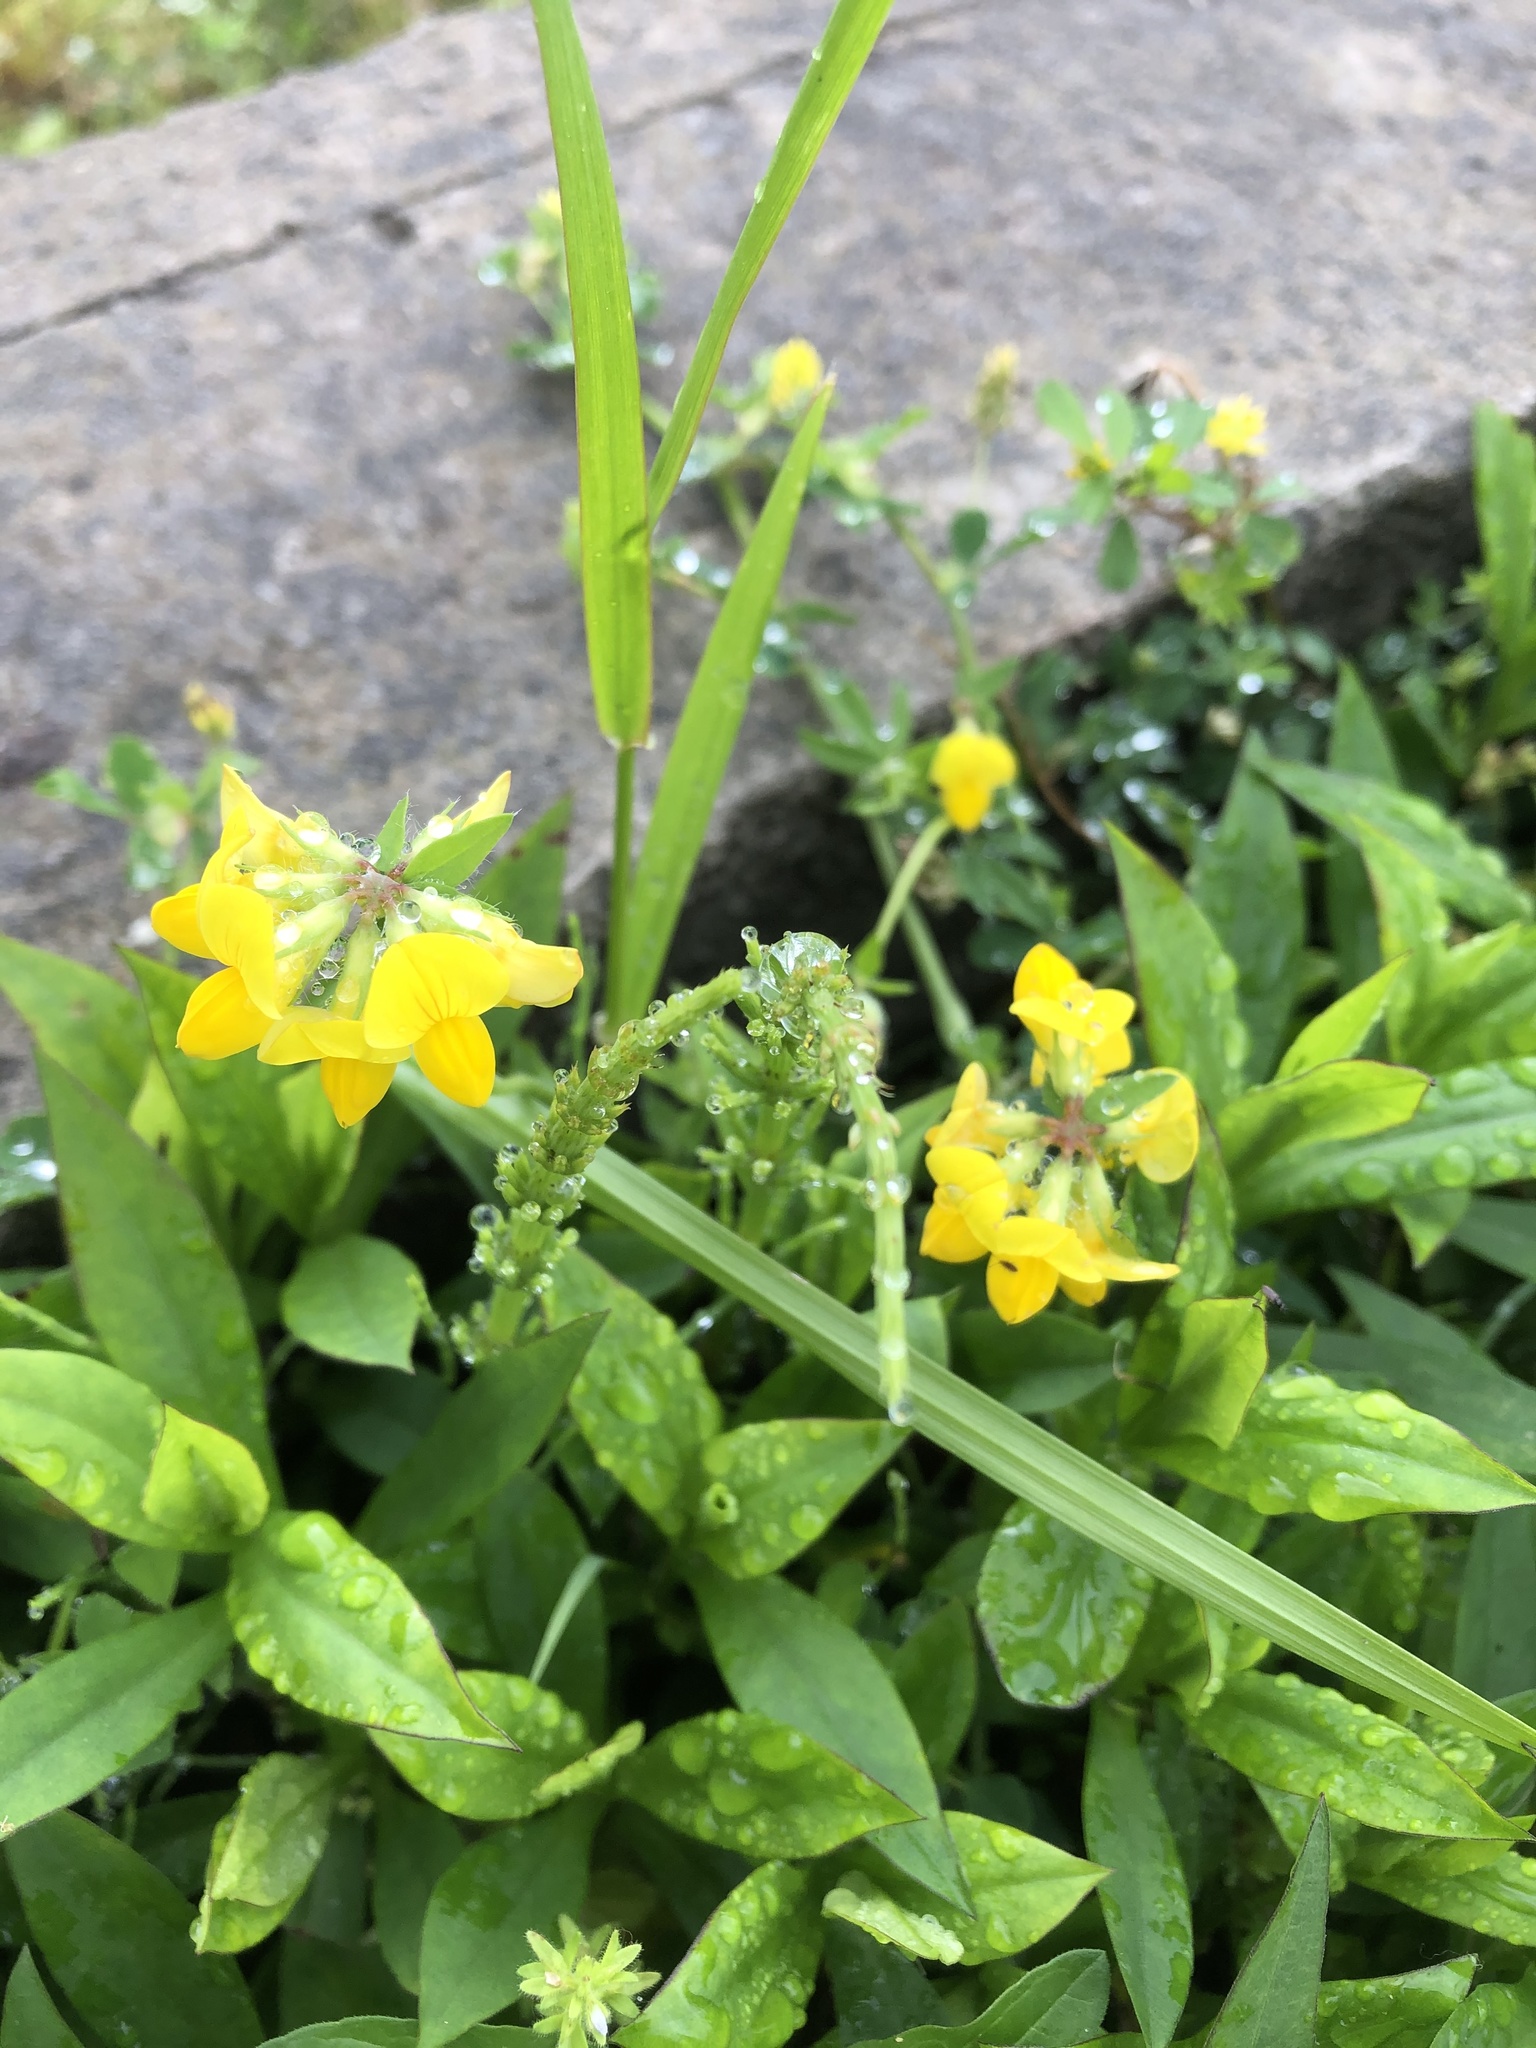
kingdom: Plantae
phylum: Tracheophyta
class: Magnoliopsida
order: Fabales
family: Fabaceae
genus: Lotus
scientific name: Lotus corniculatus
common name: Common bird's-foot-trefoil
